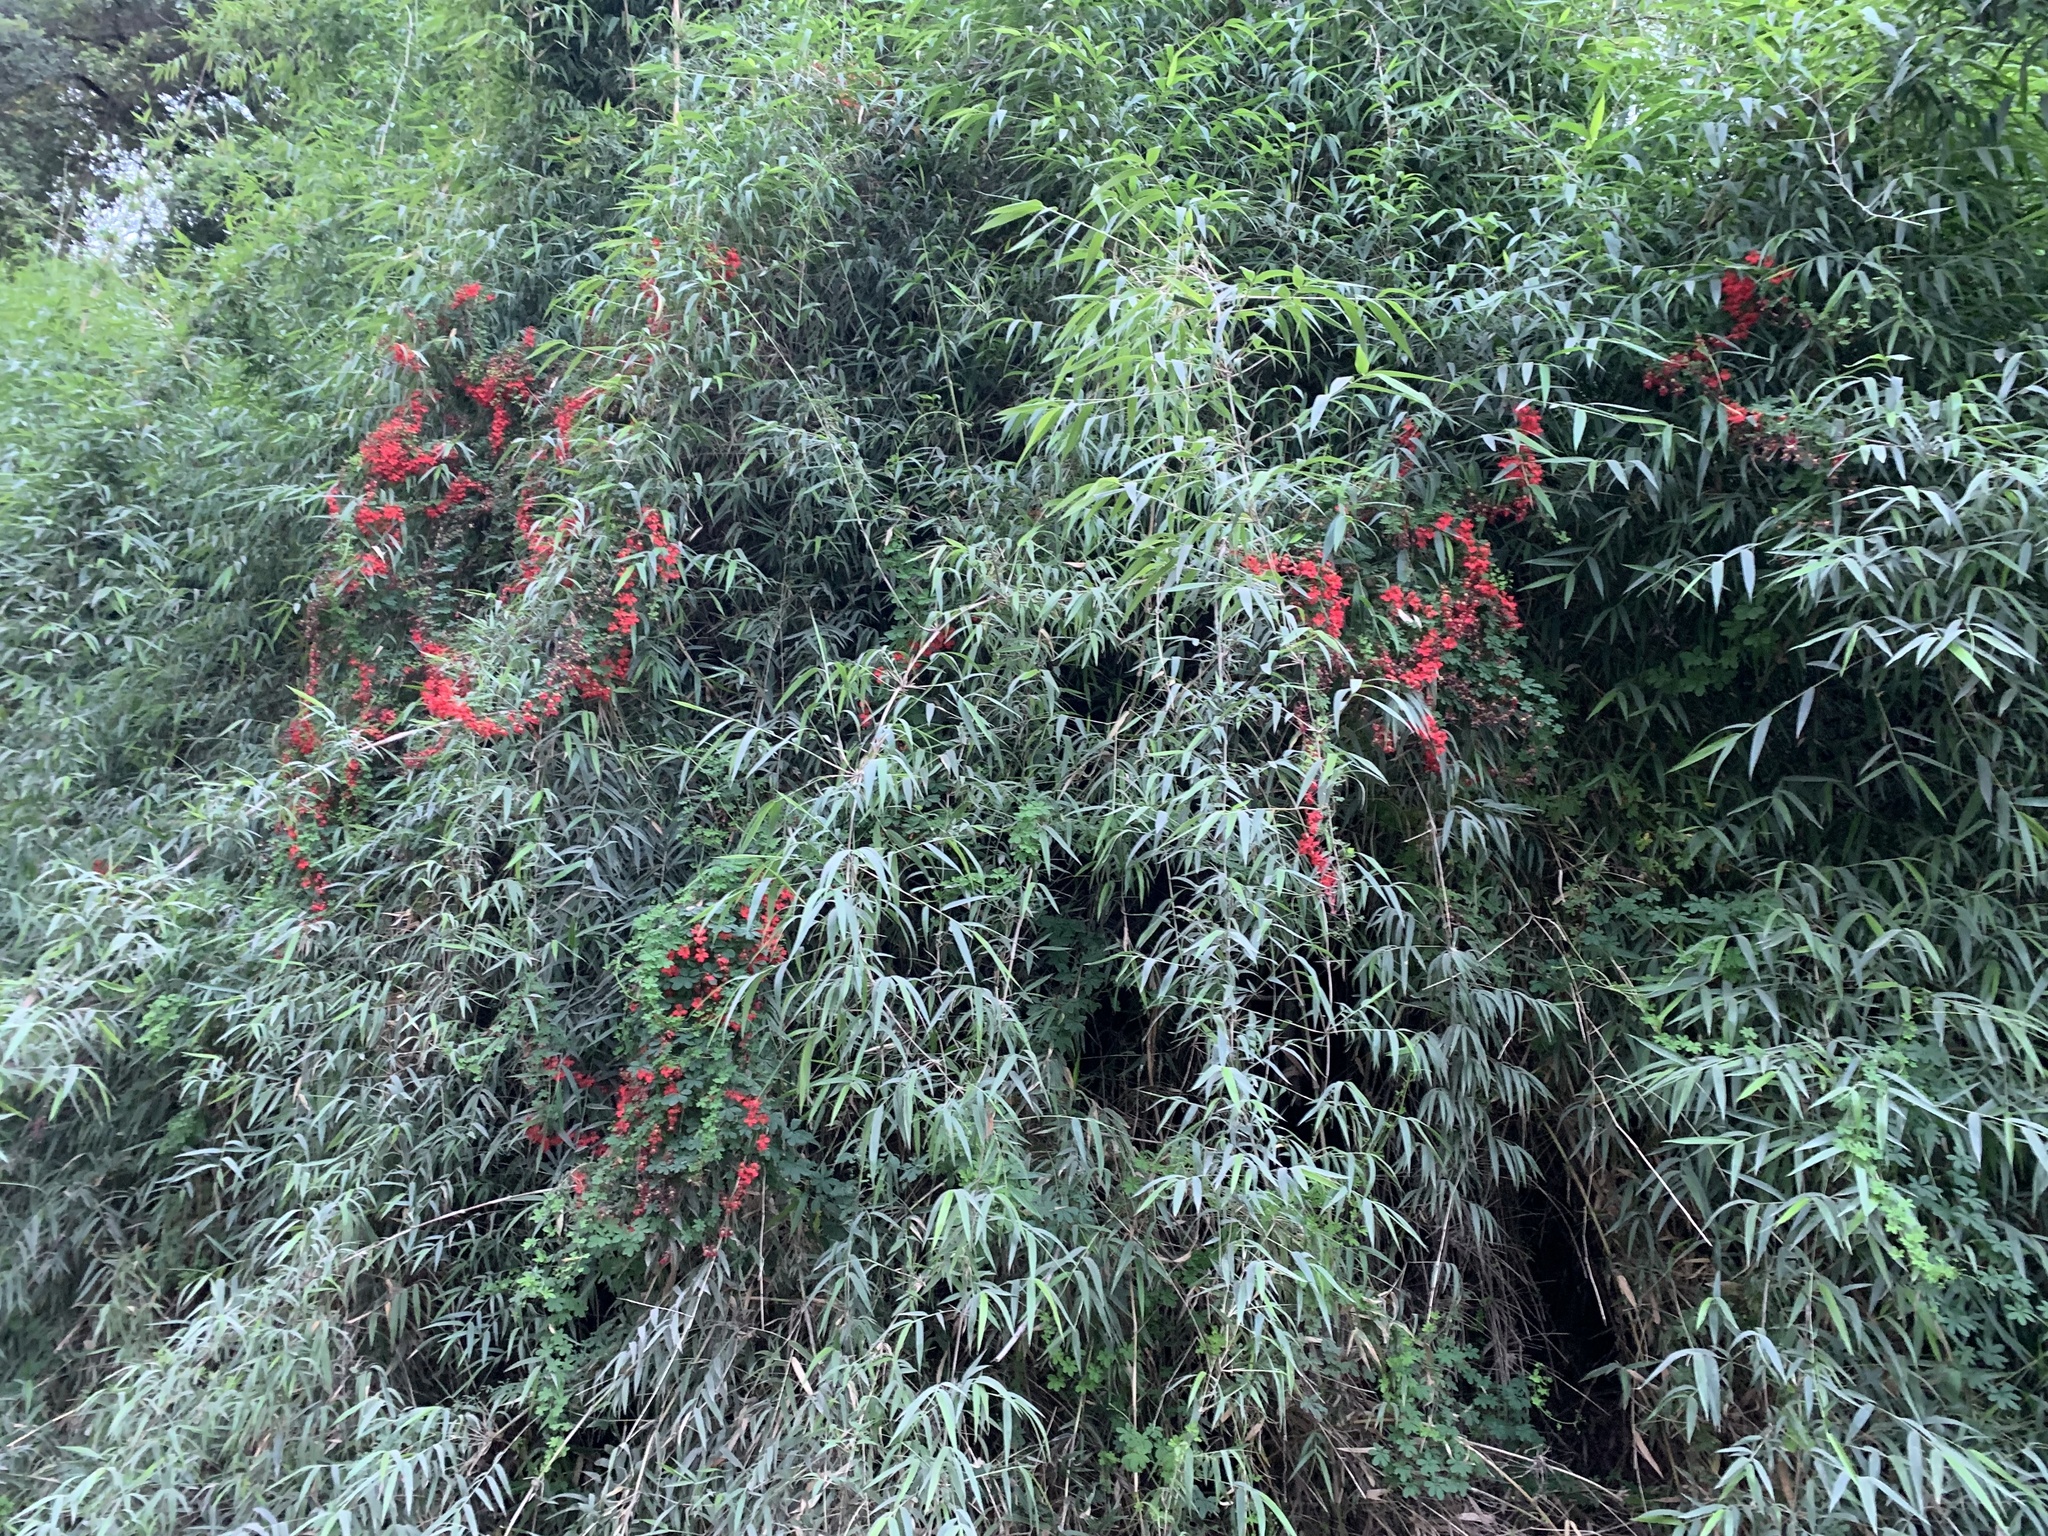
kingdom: Plantae
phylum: Tracheophyta
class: Magnoliopsida
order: Brassicales
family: Tropaeolaceae
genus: Tropaeolum
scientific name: Tropaeolum speciosum
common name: Flame nasturtium
